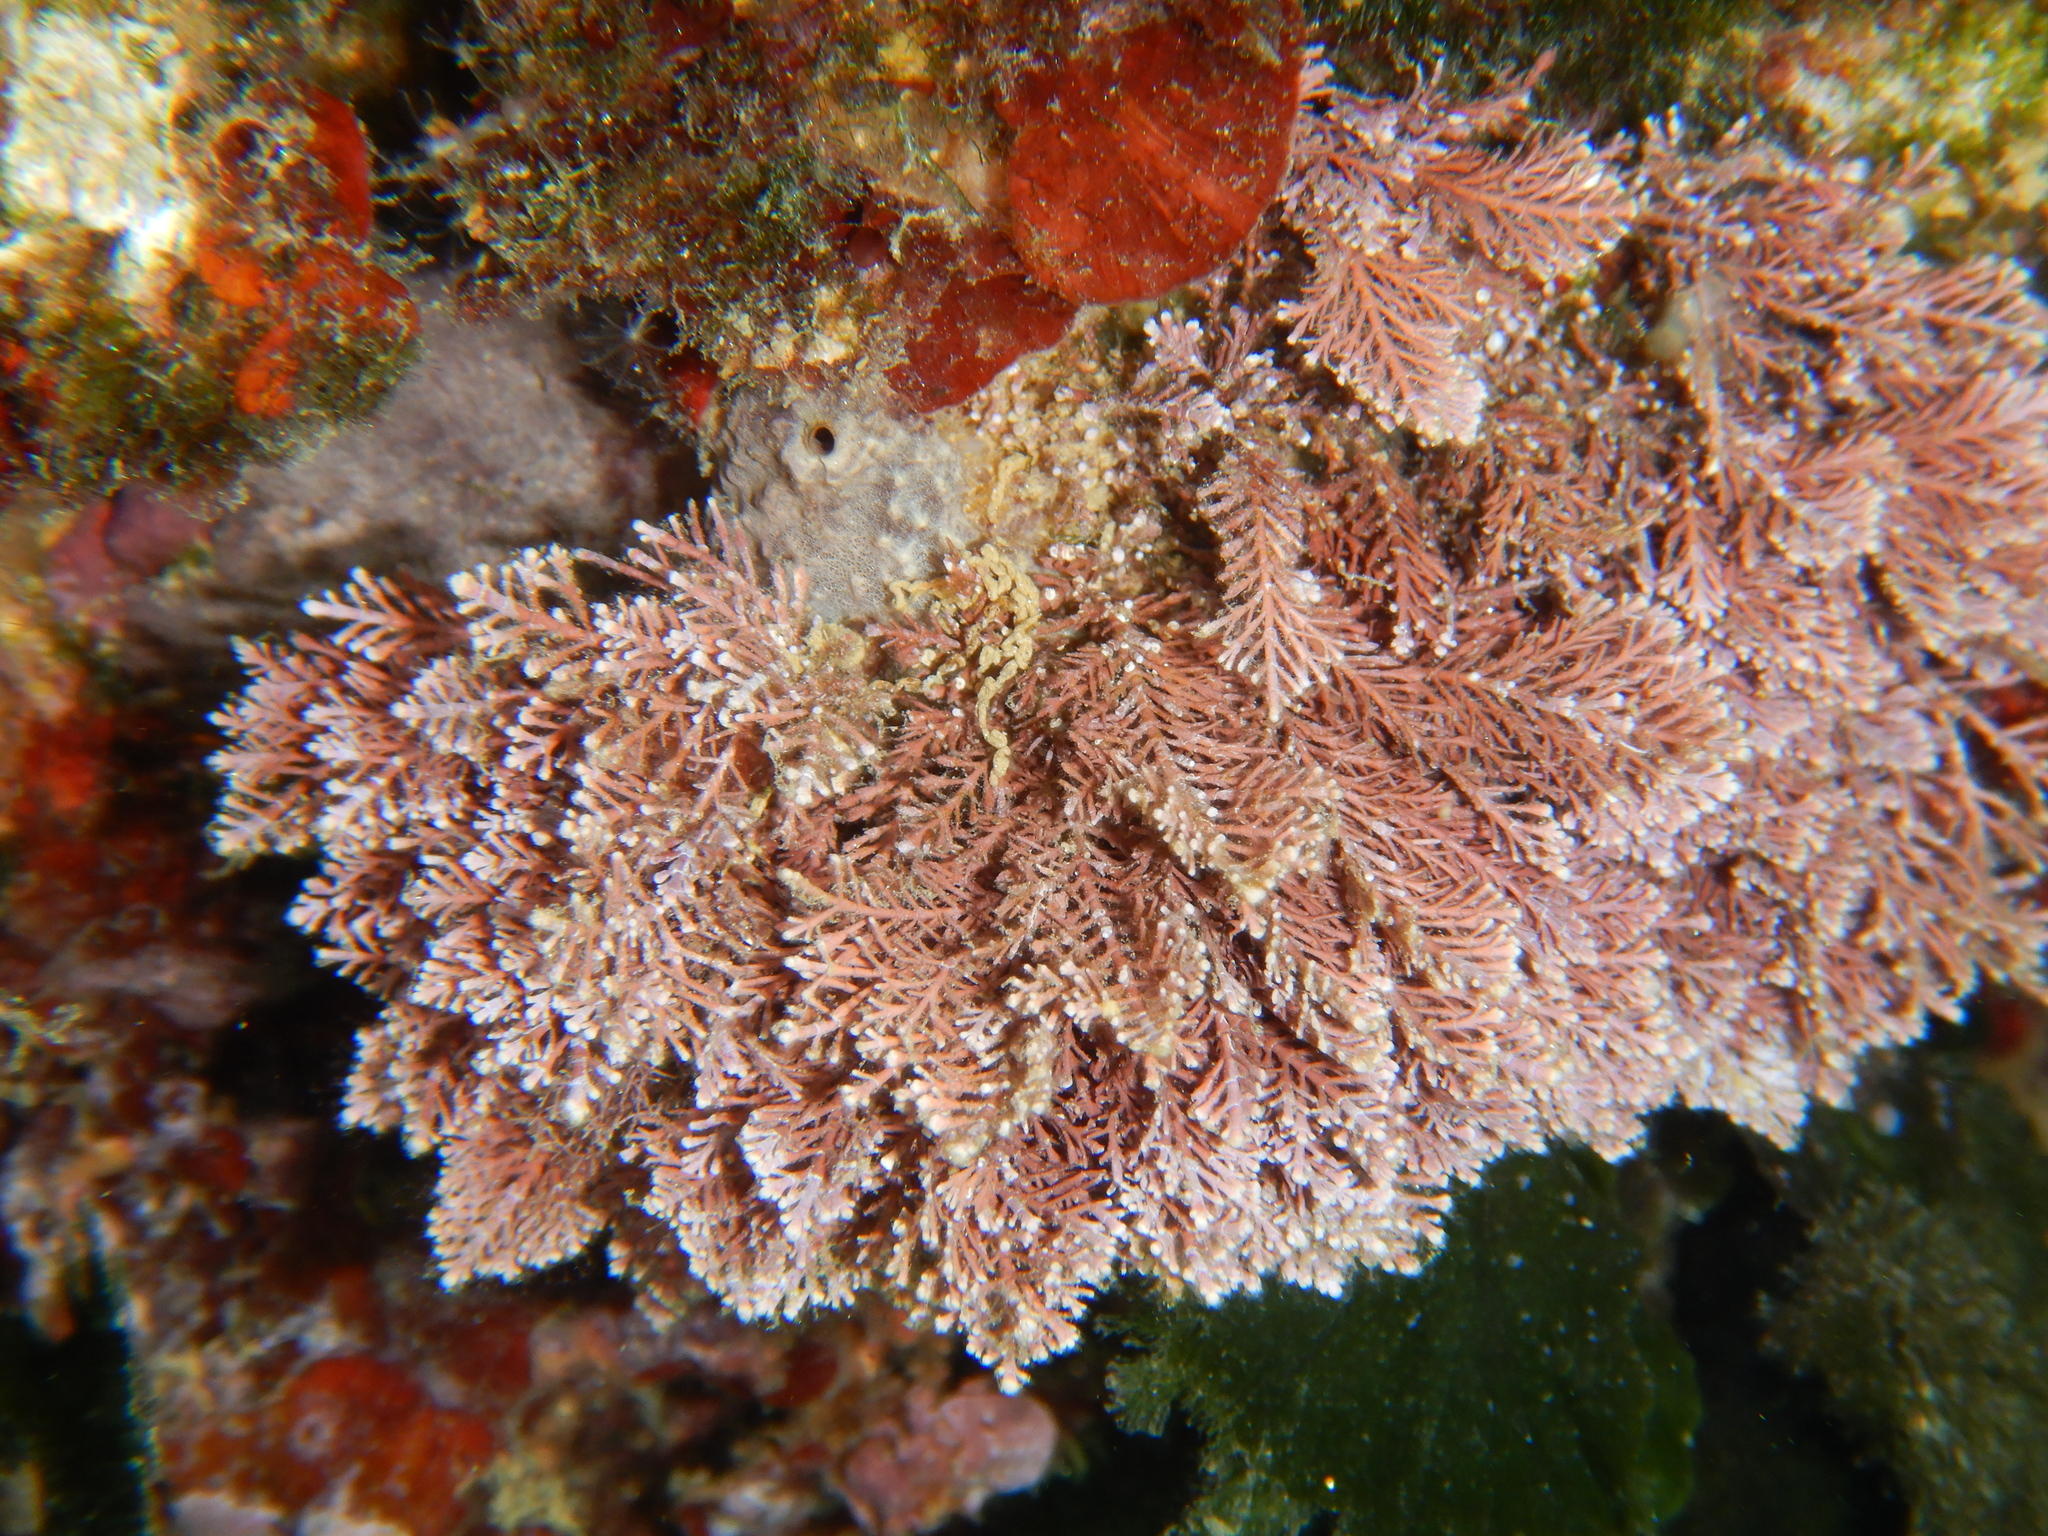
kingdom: Plantae
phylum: Rhodophyta
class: Florideophyceae
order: Corallinales
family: Corallinaceae
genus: Corallina
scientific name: Corallina
